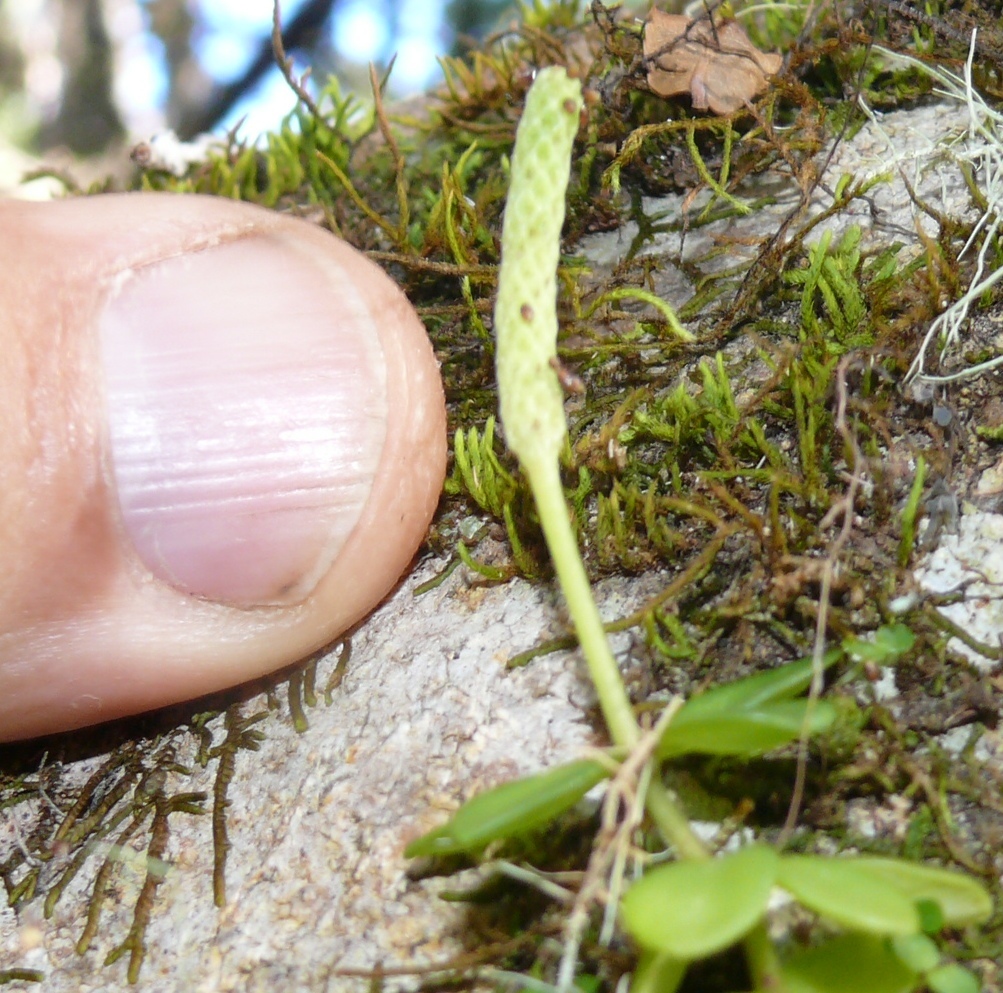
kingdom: Plantae
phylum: Tracheophyta
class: Magnoliopsida
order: Piperales
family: Piperaceae
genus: Peperomia
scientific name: Peperomia tetraphylla
